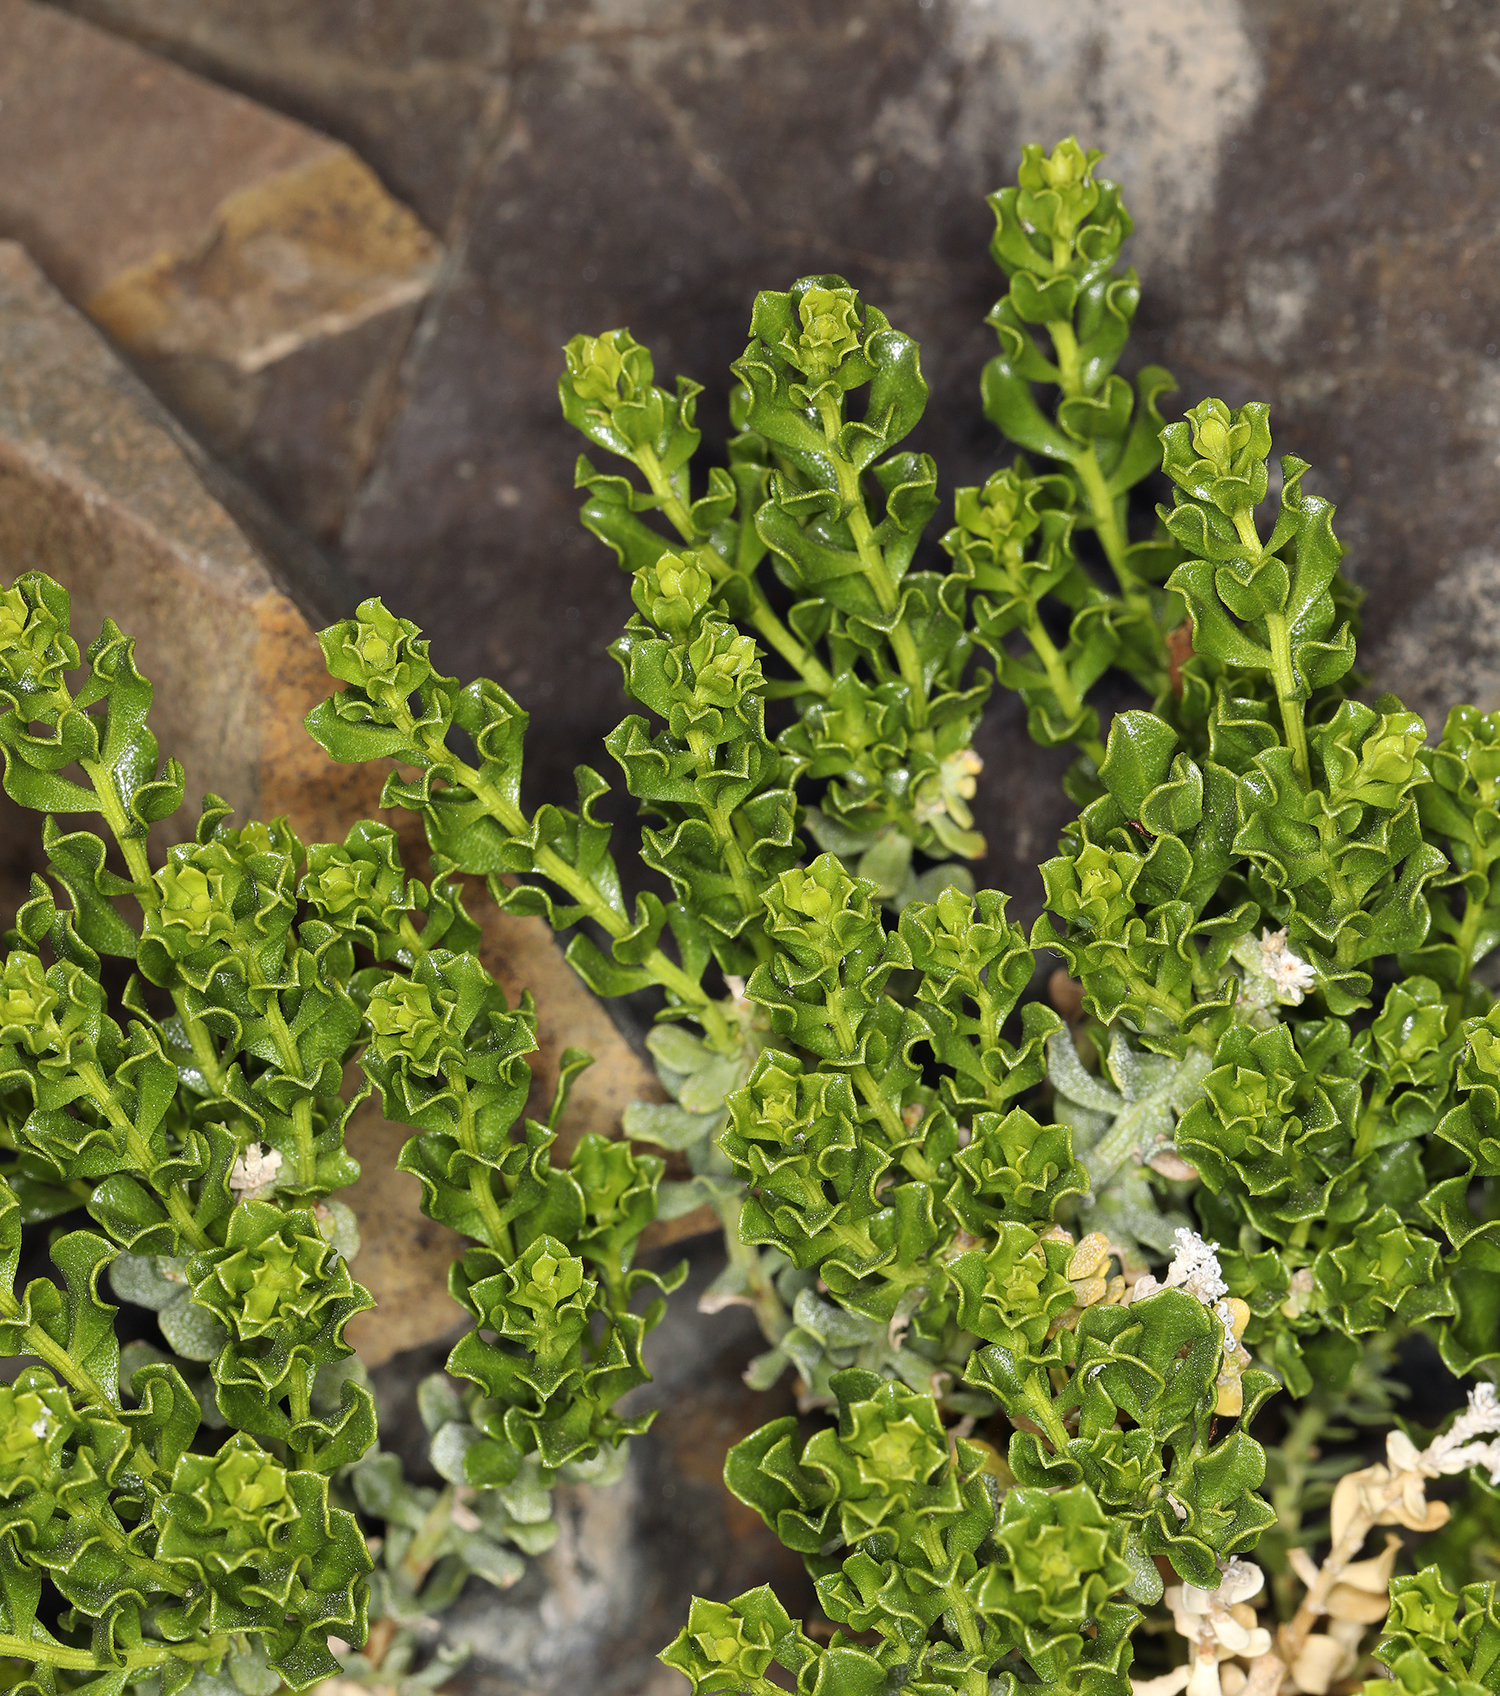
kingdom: Plantae
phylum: Tracheophyta
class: Magnoliopsida
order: Asterales
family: Asteraceae
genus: Ericameria
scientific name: Ericameria cuneata
